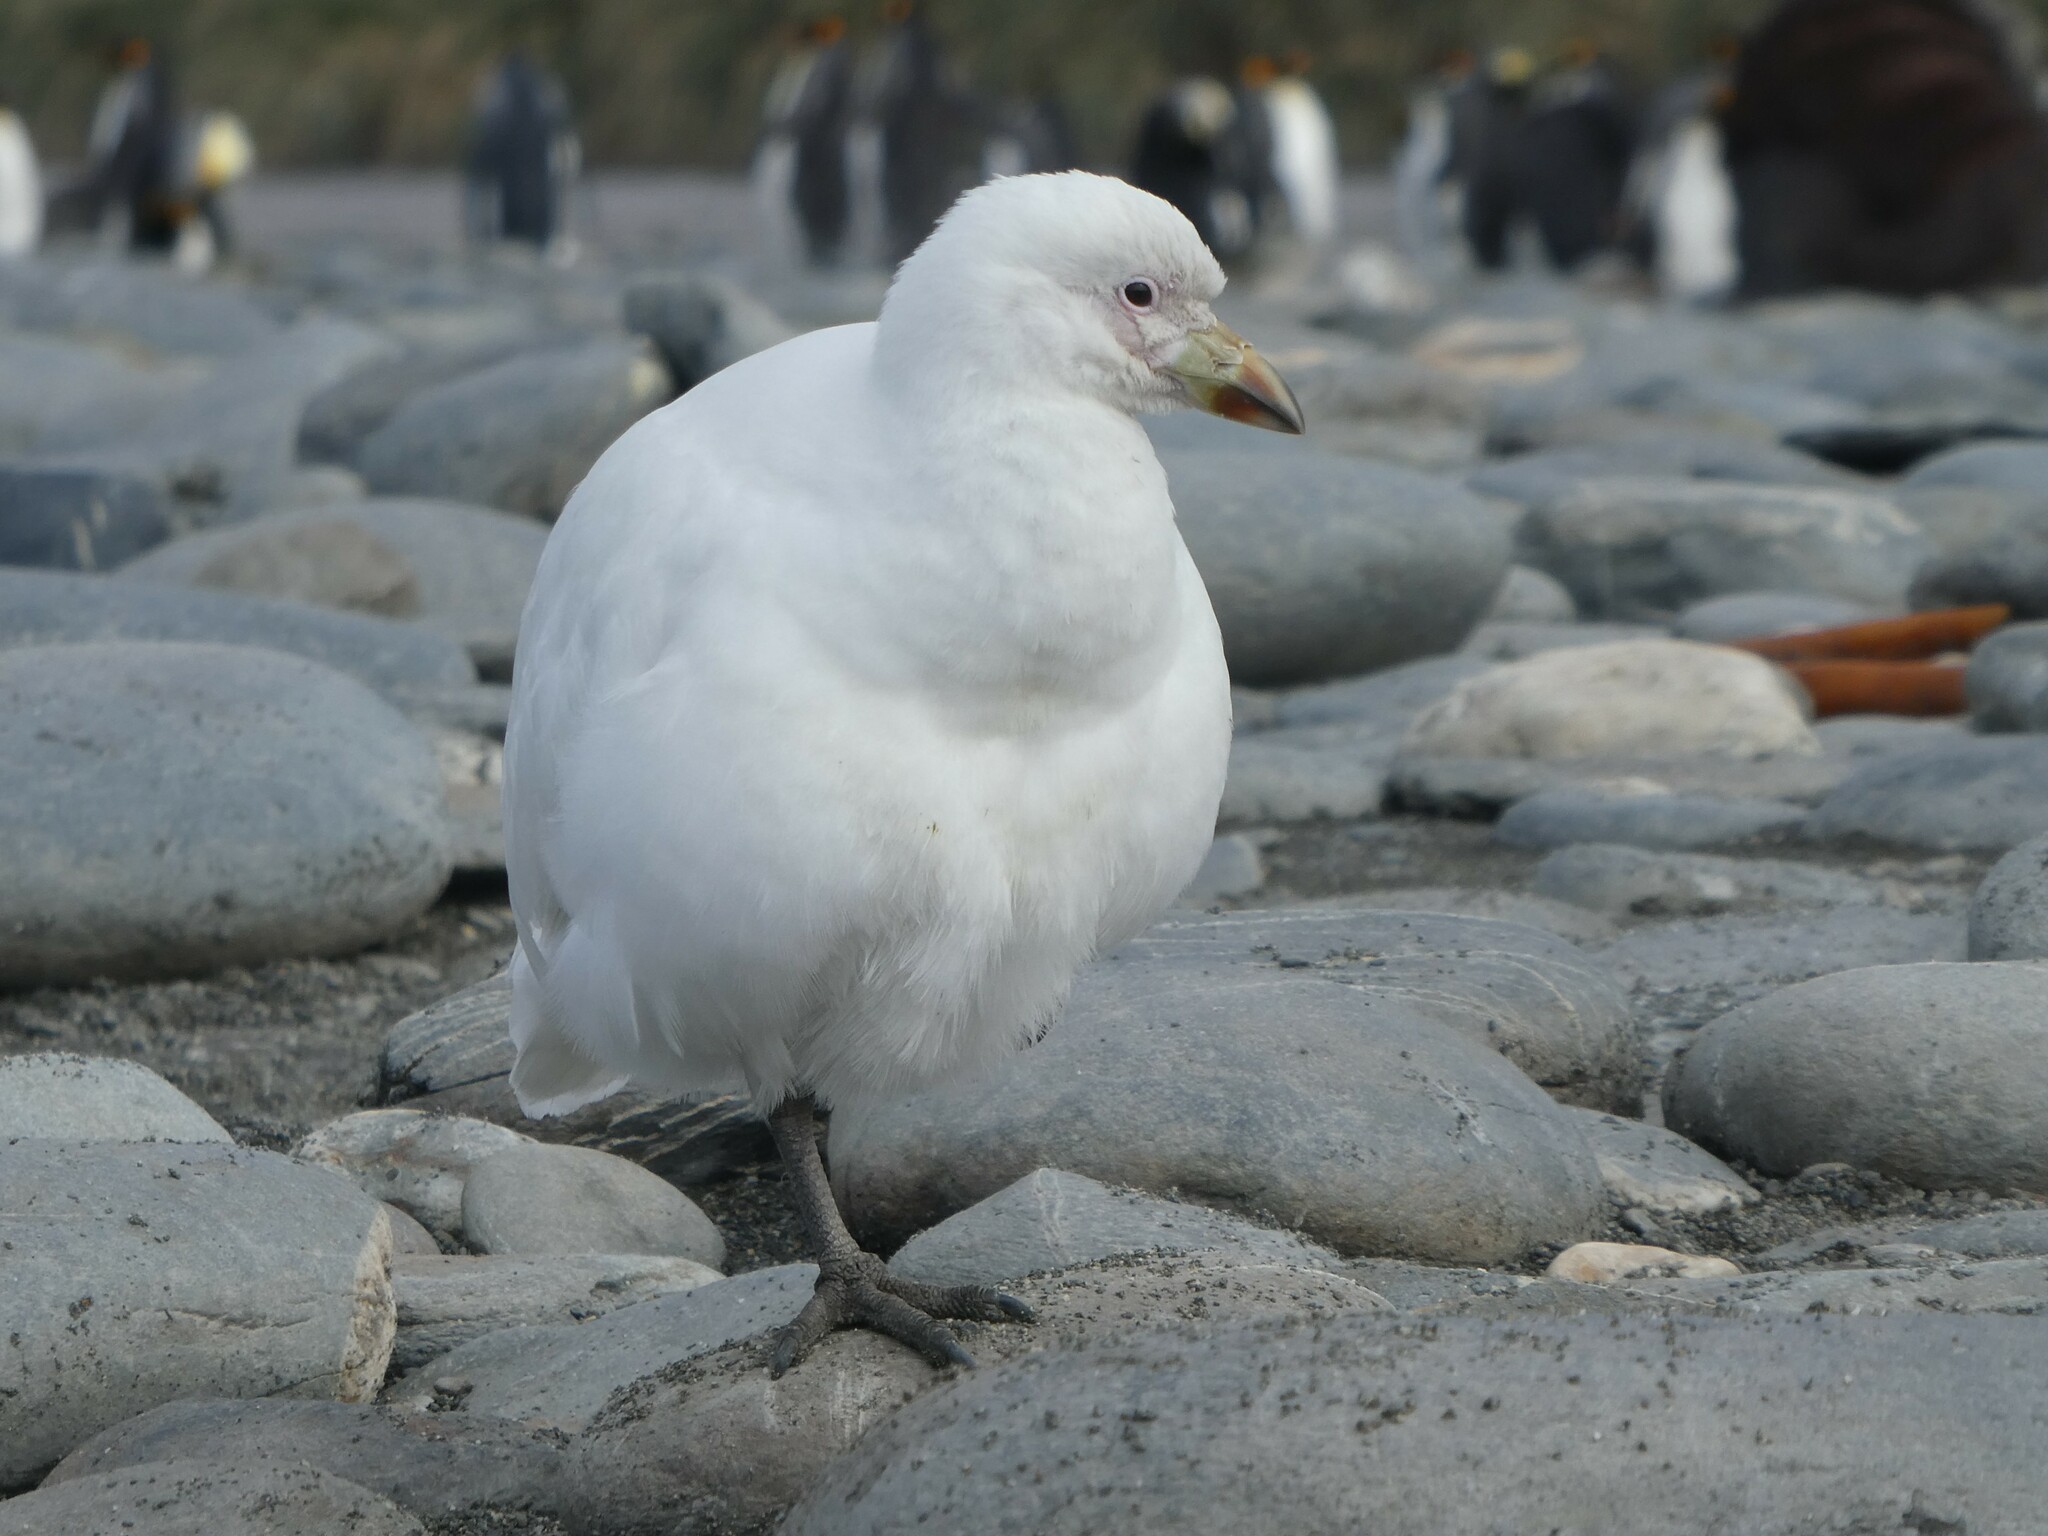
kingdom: Animalia
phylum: Chordata
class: Aves
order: Charadriiformes
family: Chionidae
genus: Chionis
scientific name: Chionis albus
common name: Snowy sheathbill
